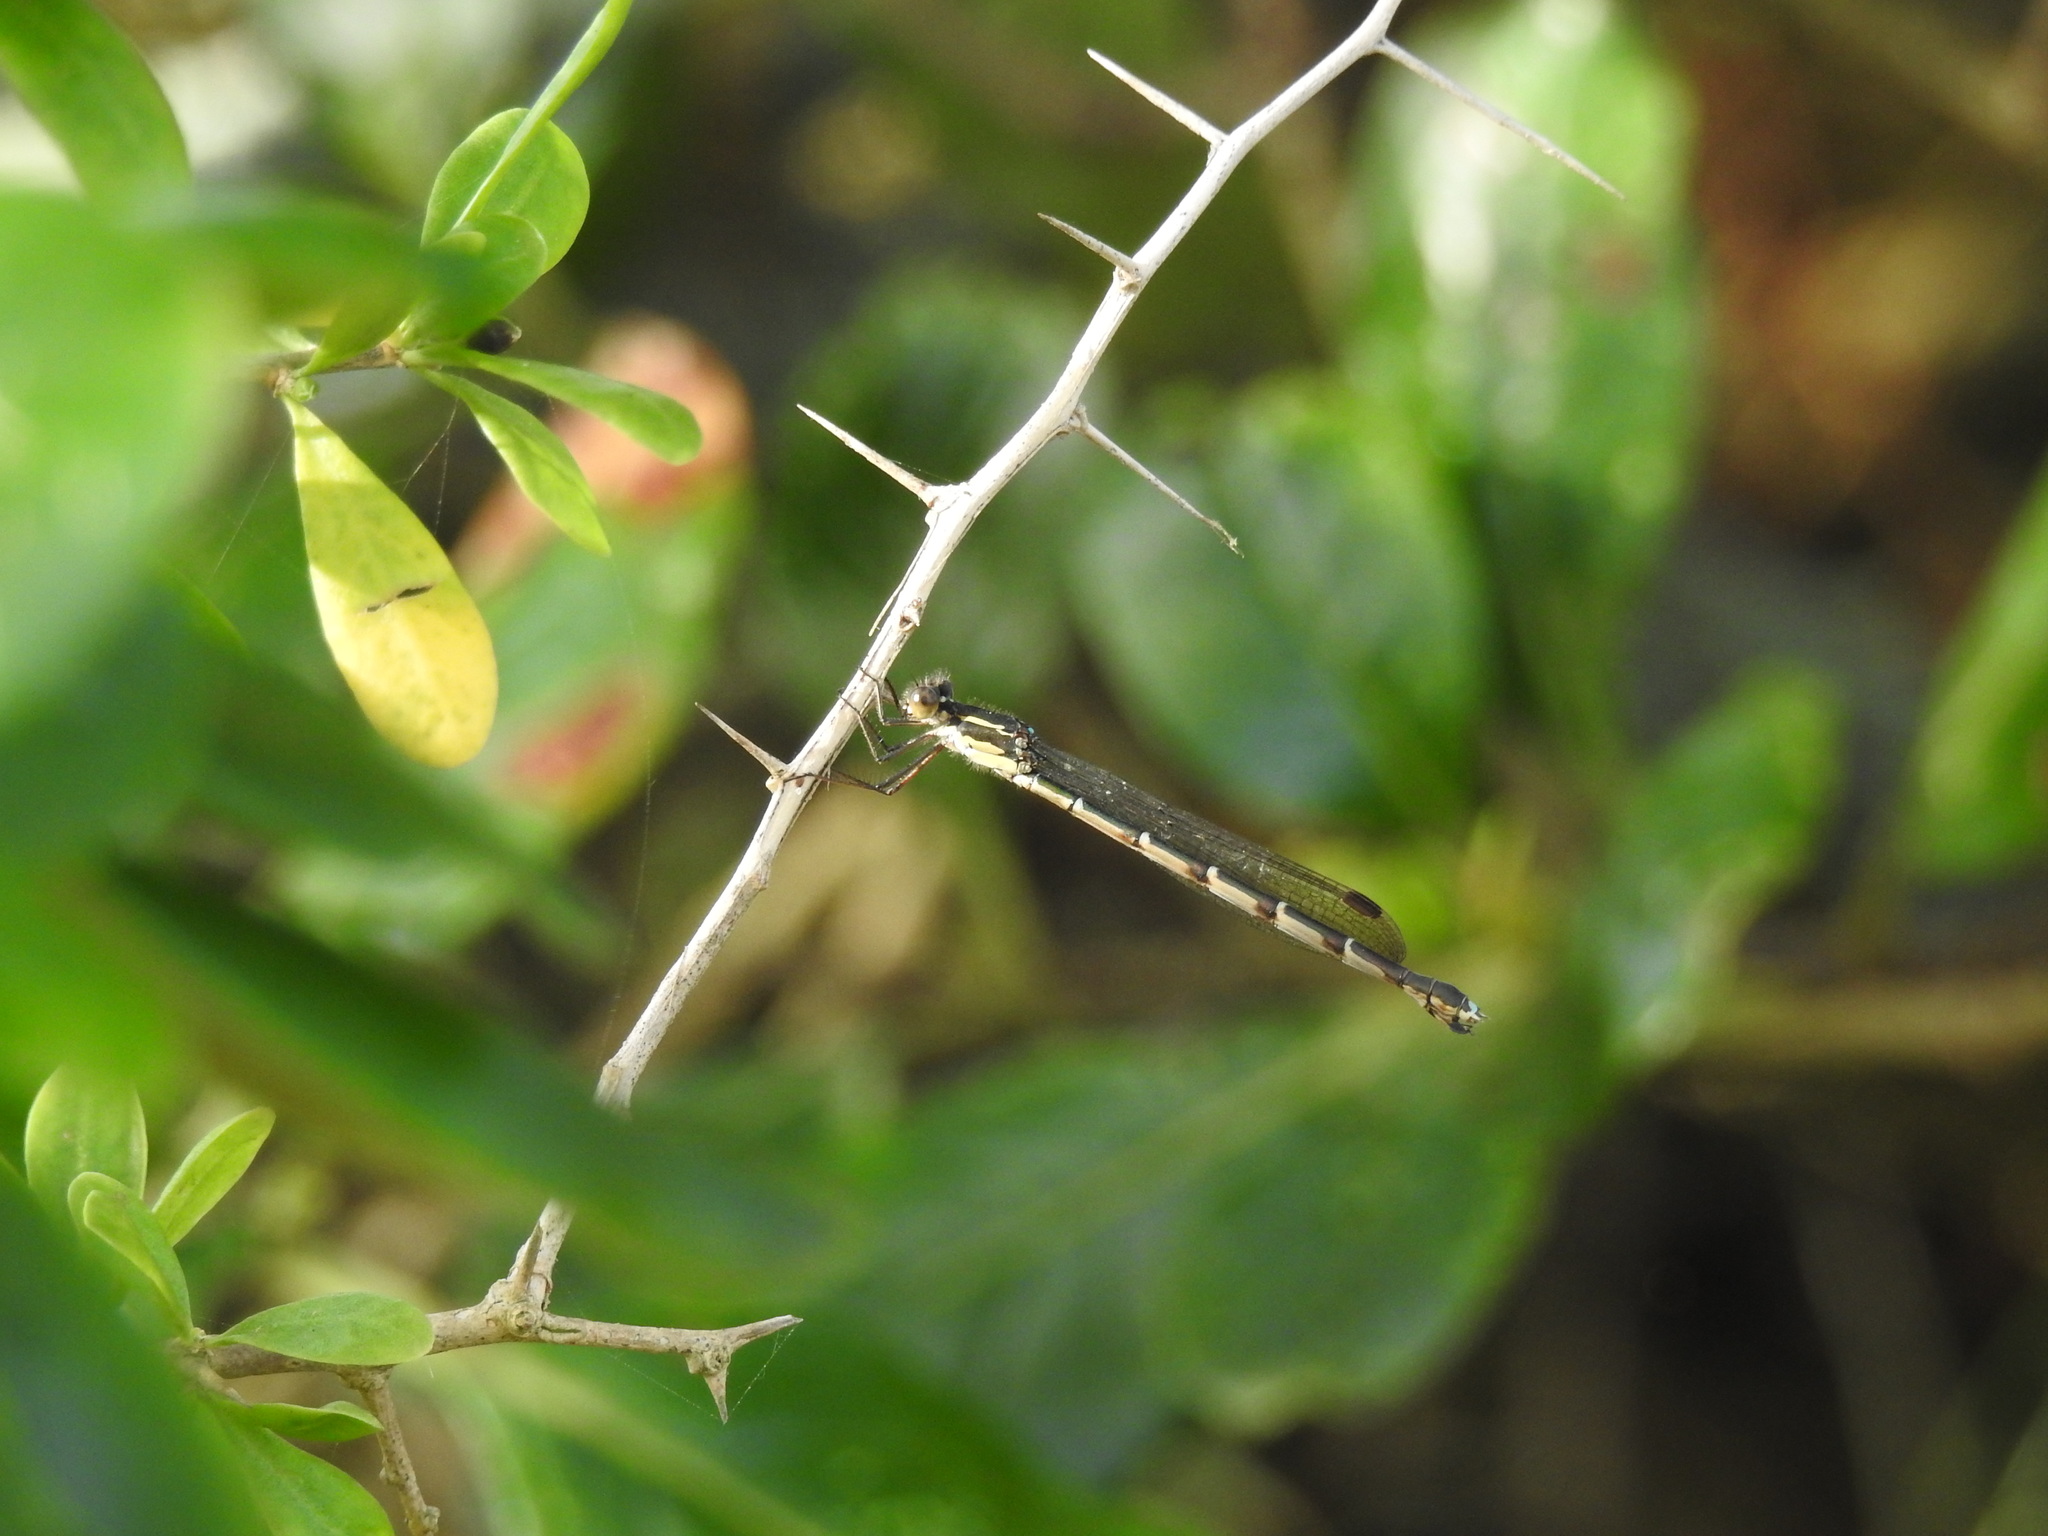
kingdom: Animalia
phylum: Arthropoda
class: Insecta
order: Odonata
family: Lestidae
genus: Austrolestes
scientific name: Austrolestes colensonis
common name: Blue damselfly
